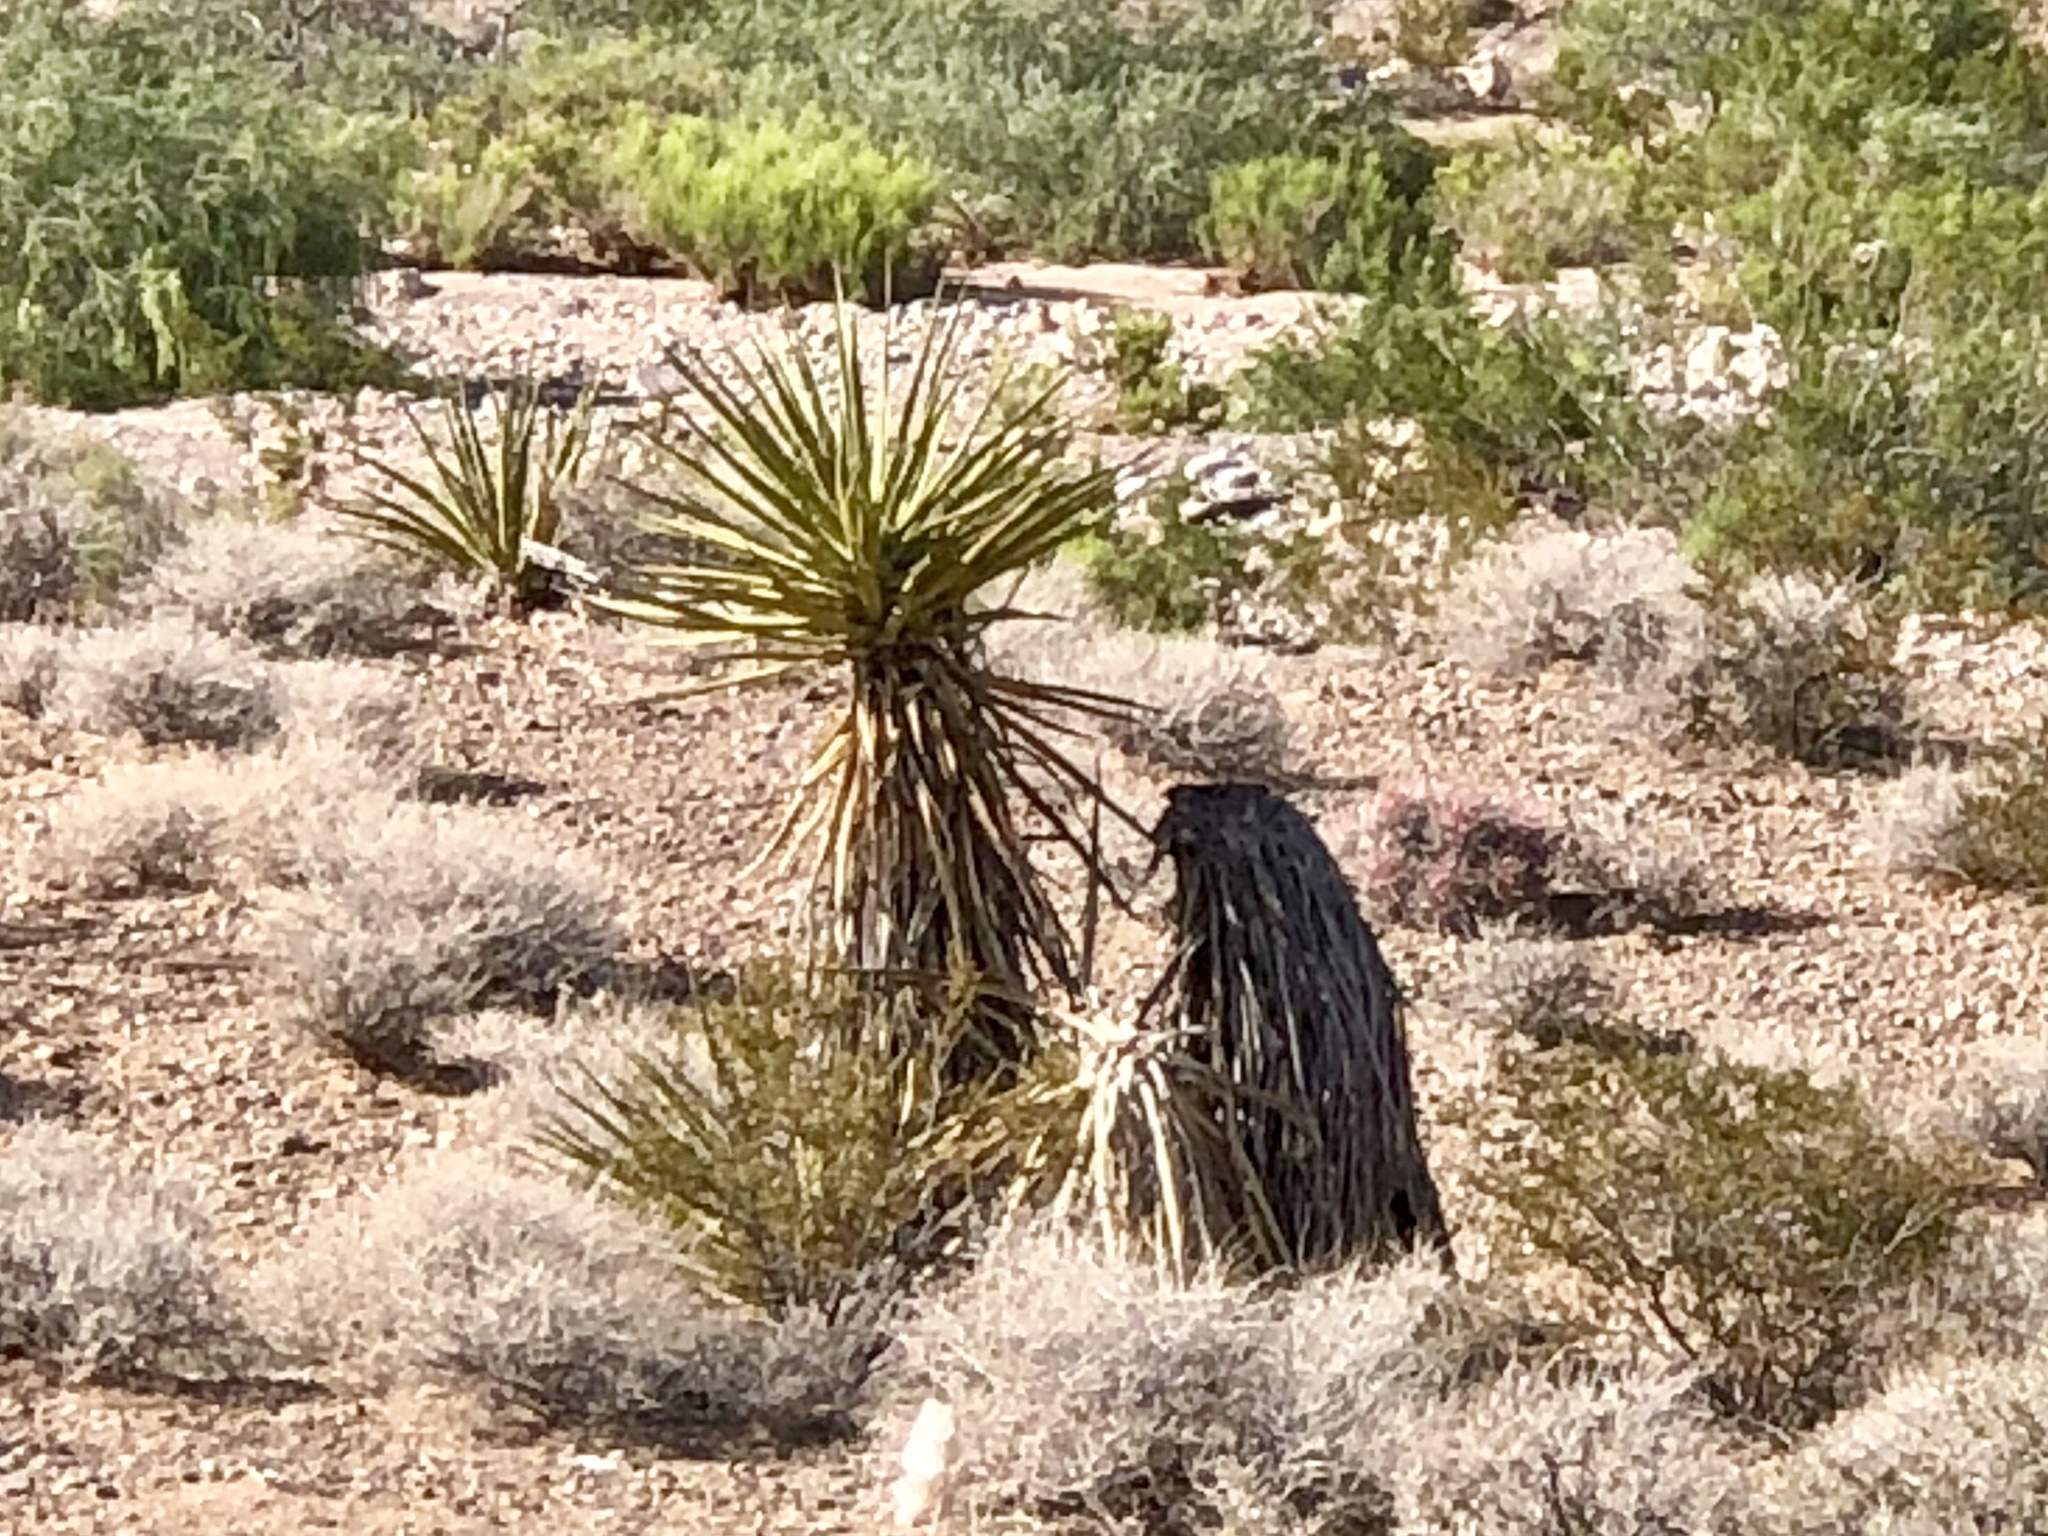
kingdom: Plantae
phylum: Tracheophyta
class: Liliopsida
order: Asparagales
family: Asparagaceae
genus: Yucca
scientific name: Yucca schidigera
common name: Mojave yucca
